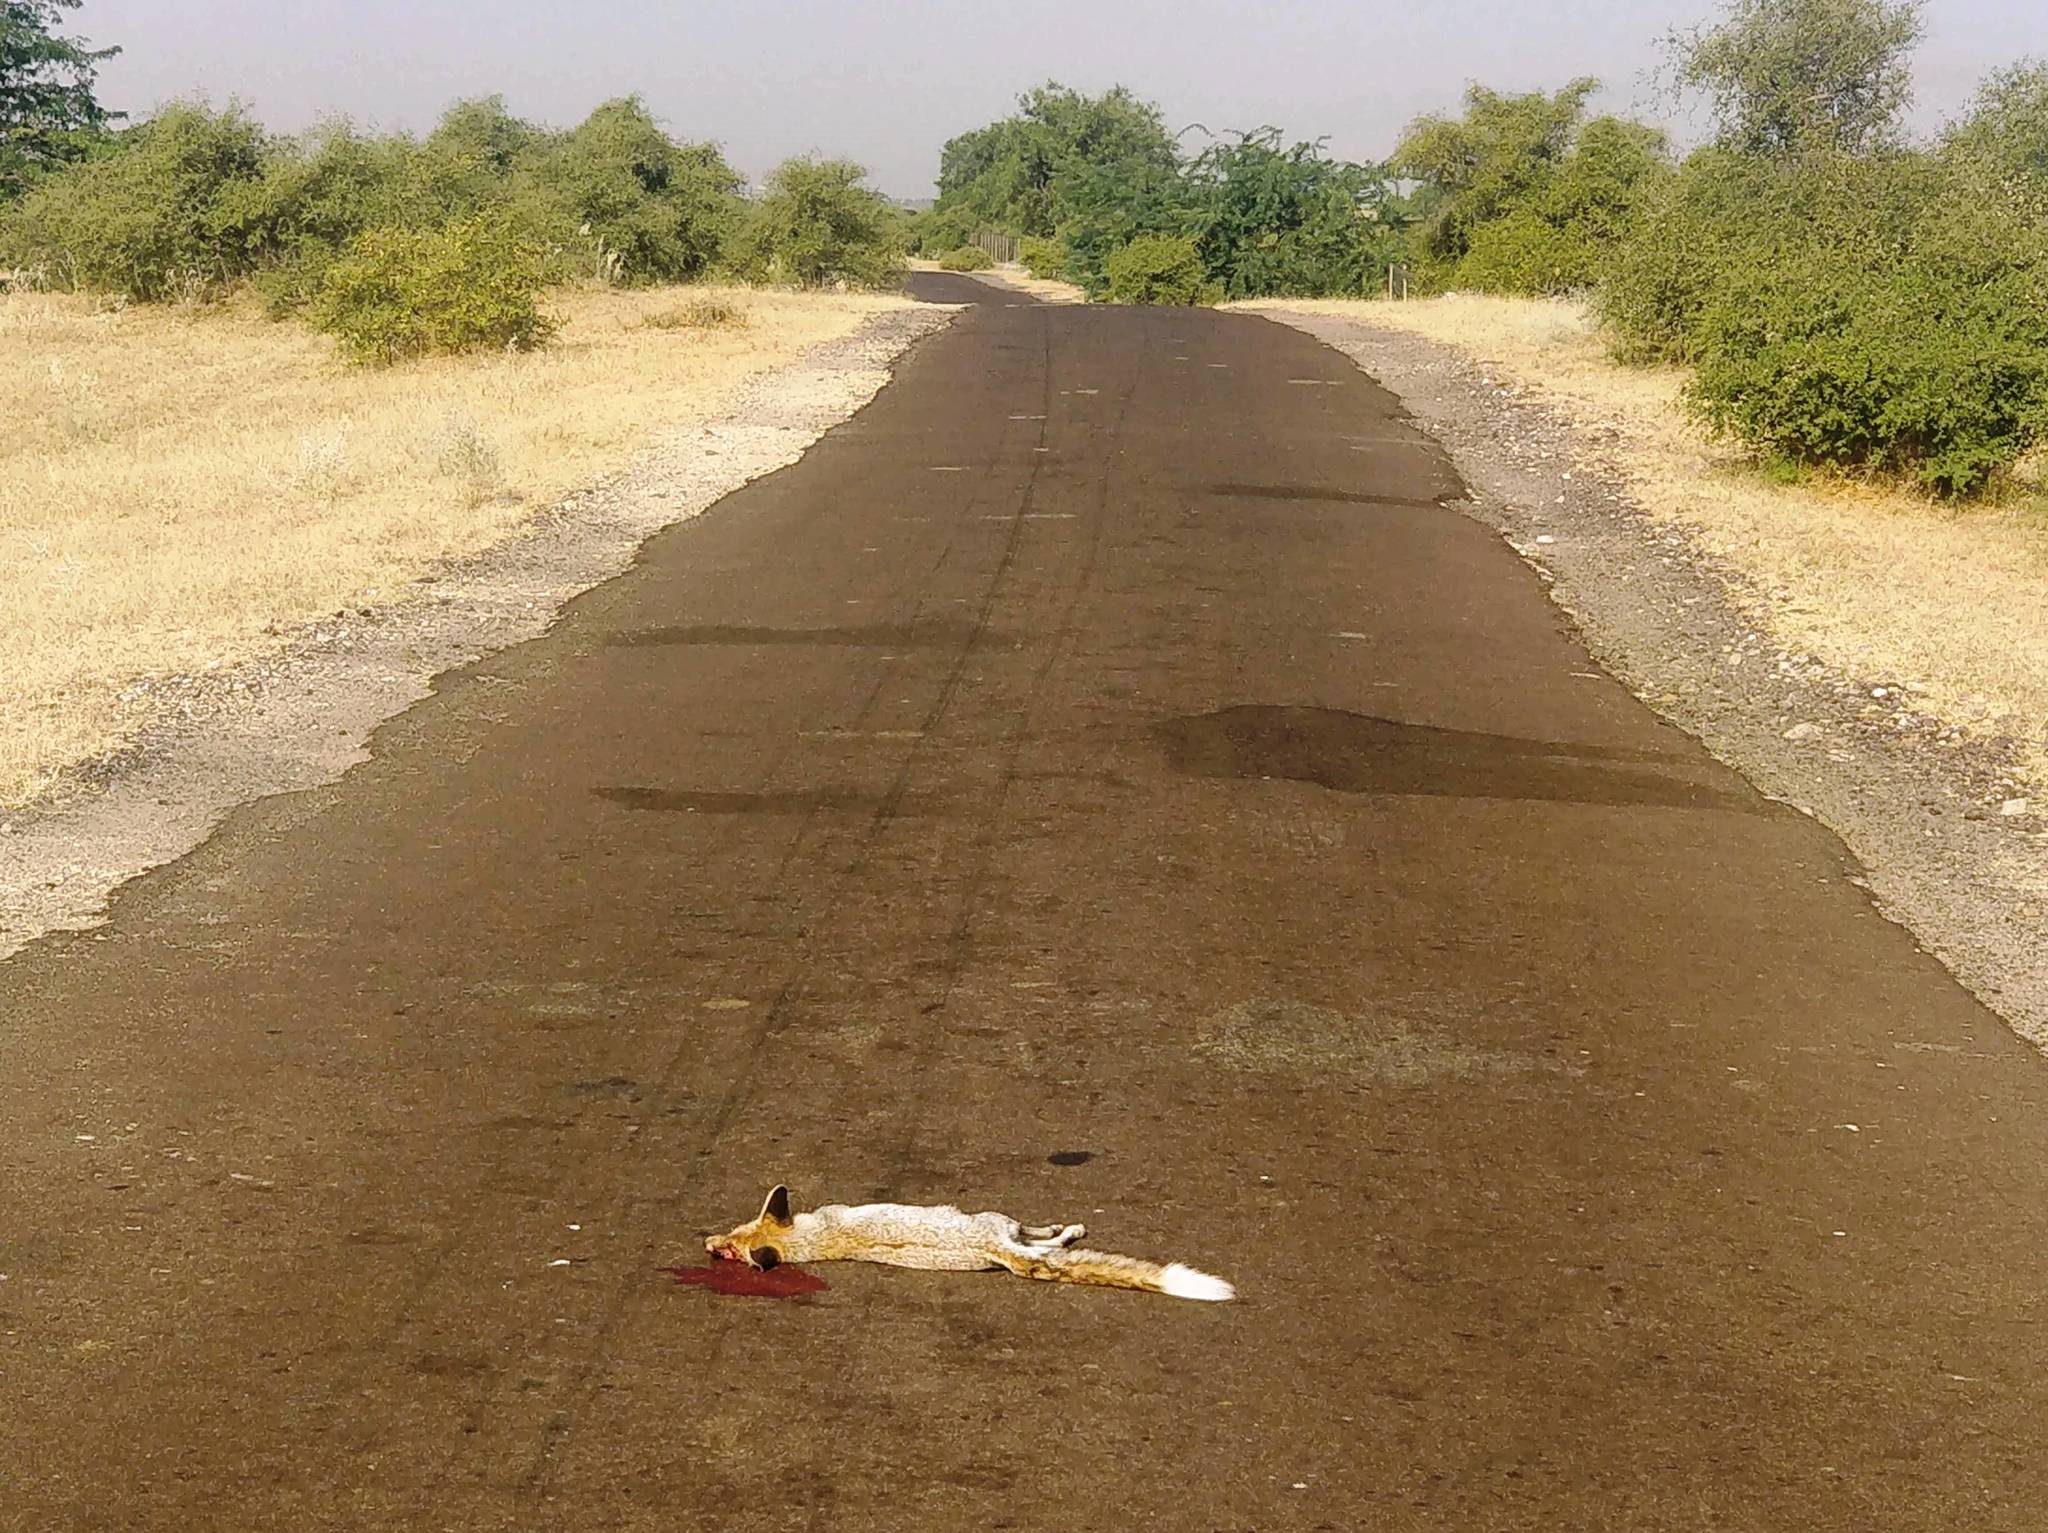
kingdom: Animalia
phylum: Chordata
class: Mammalia
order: Carnivora
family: Canidae
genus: Vulpes
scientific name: Vulpes vulpes
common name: Red fox
